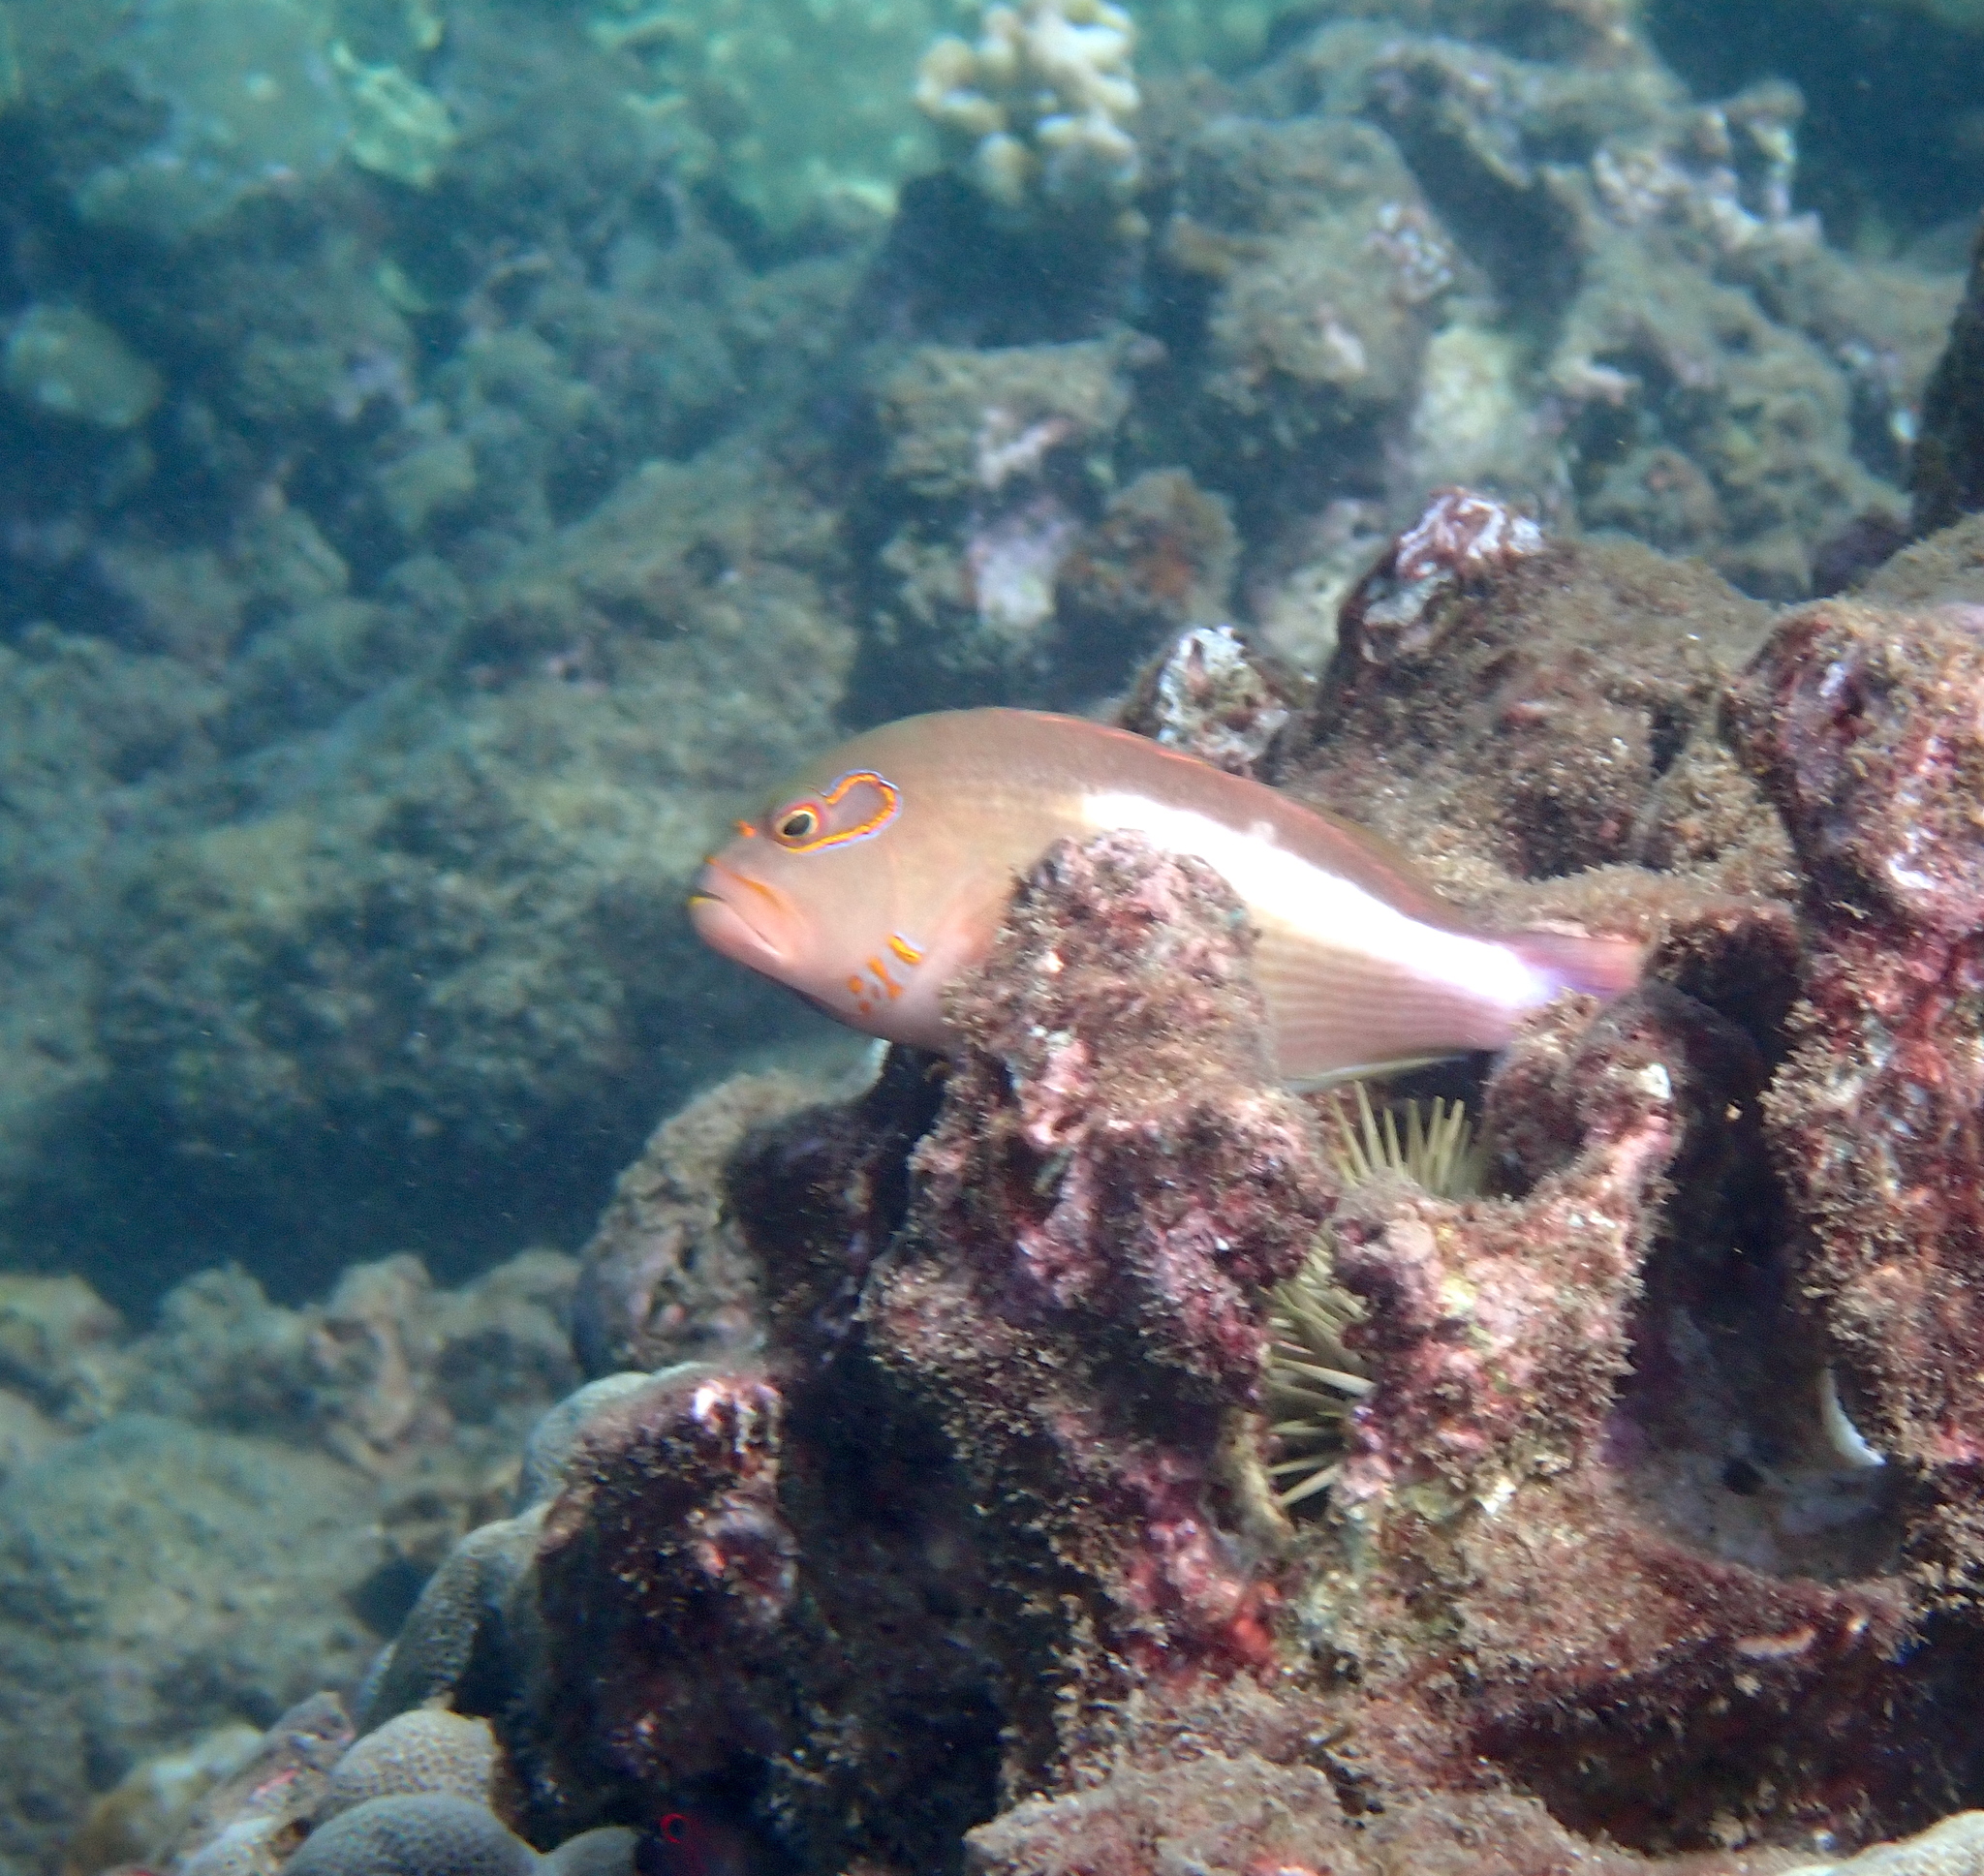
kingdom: Animalia
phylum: Chordata
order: Perciformes
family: Cirrhitidae
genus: Paracirrhites
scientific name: Paracirrhites arcatus
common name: Arc-eye hawkfish
